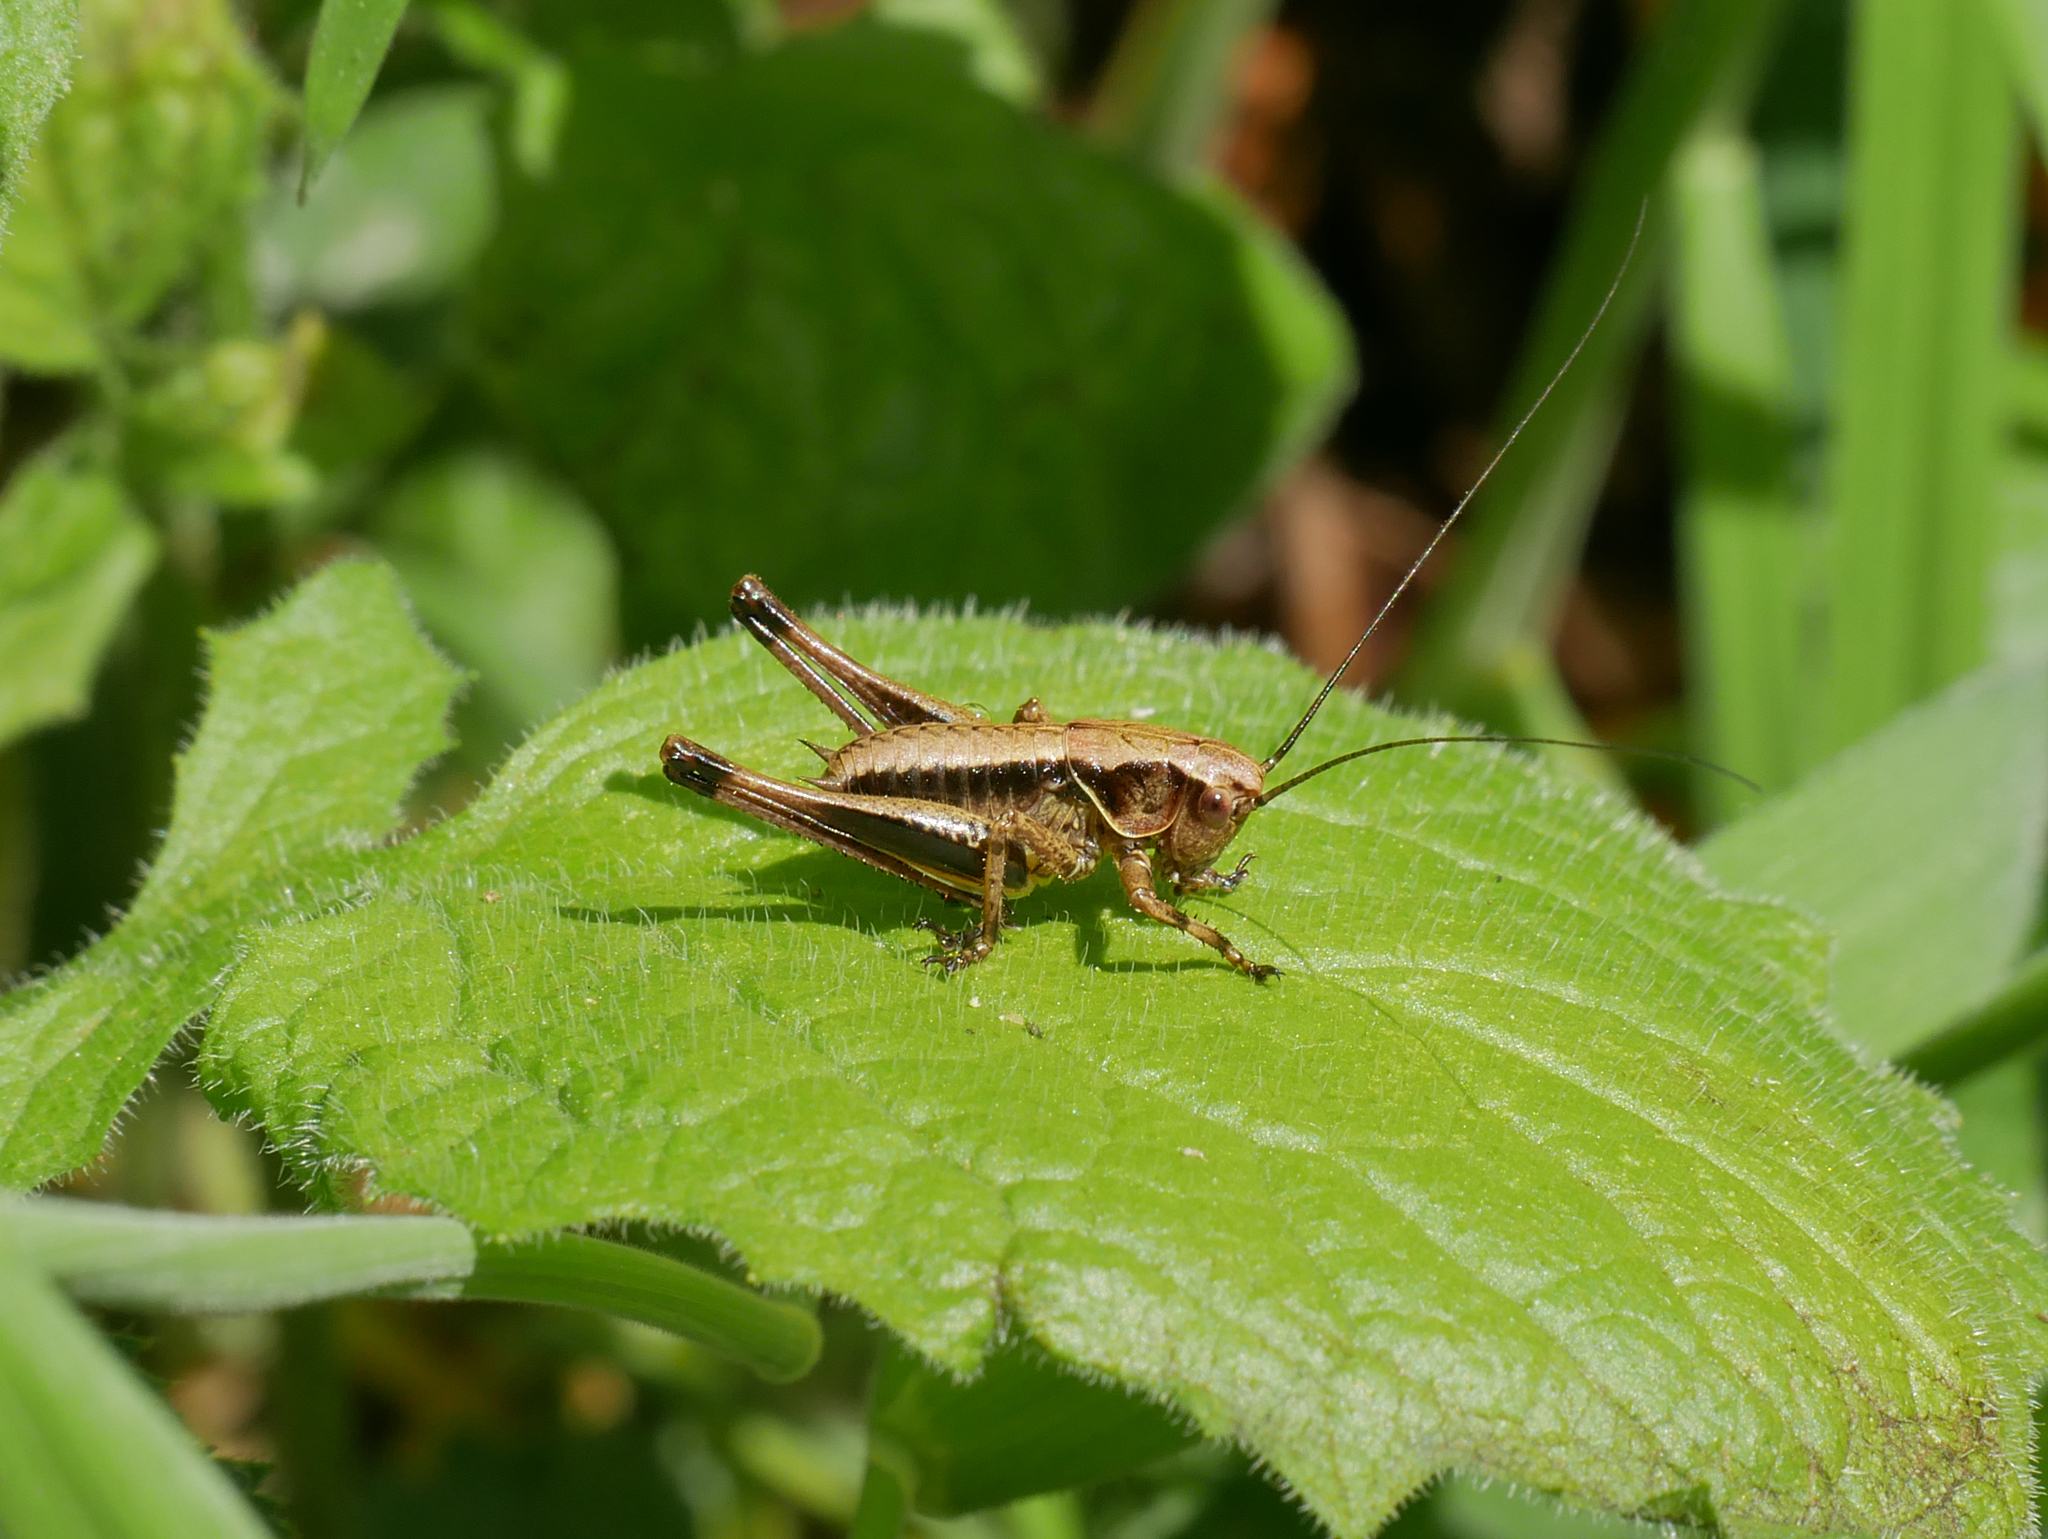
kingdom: Animalia
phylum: Arthropoda
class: Insecta
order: Orthoptera
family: Tettigoniidae
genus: Pholidoptera
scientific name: Pholidoptera griseoaptera
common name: Dark bush-cricket
